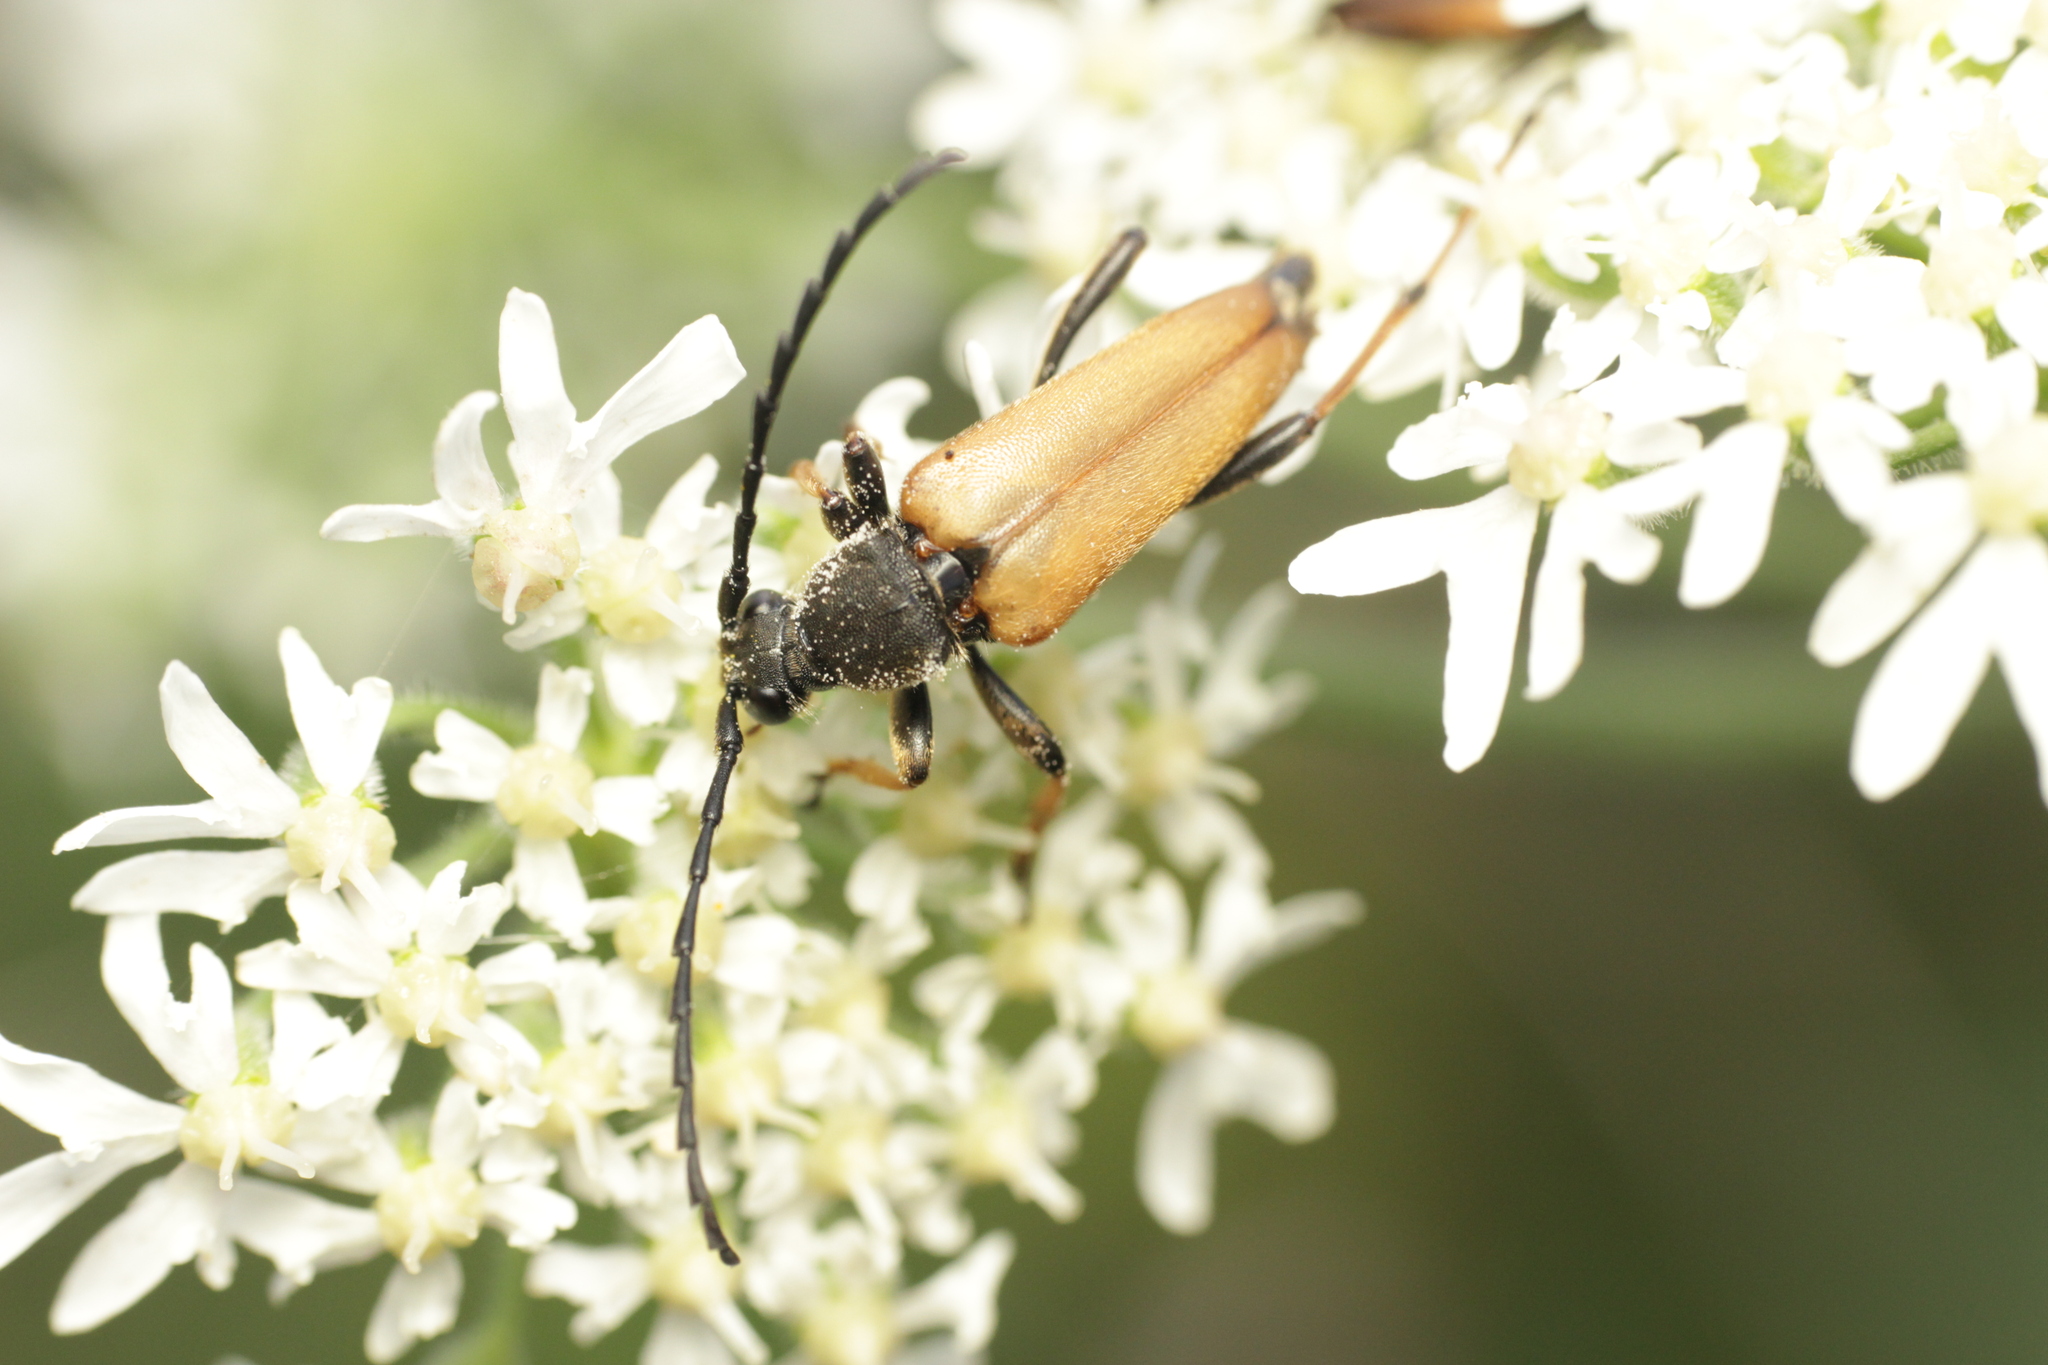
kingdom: Animalia
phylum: Arthropoda
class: Insecta
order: Coleoptera
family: Cerambycidae
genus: Stictoleptura
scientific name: Stictoleptura rubra
